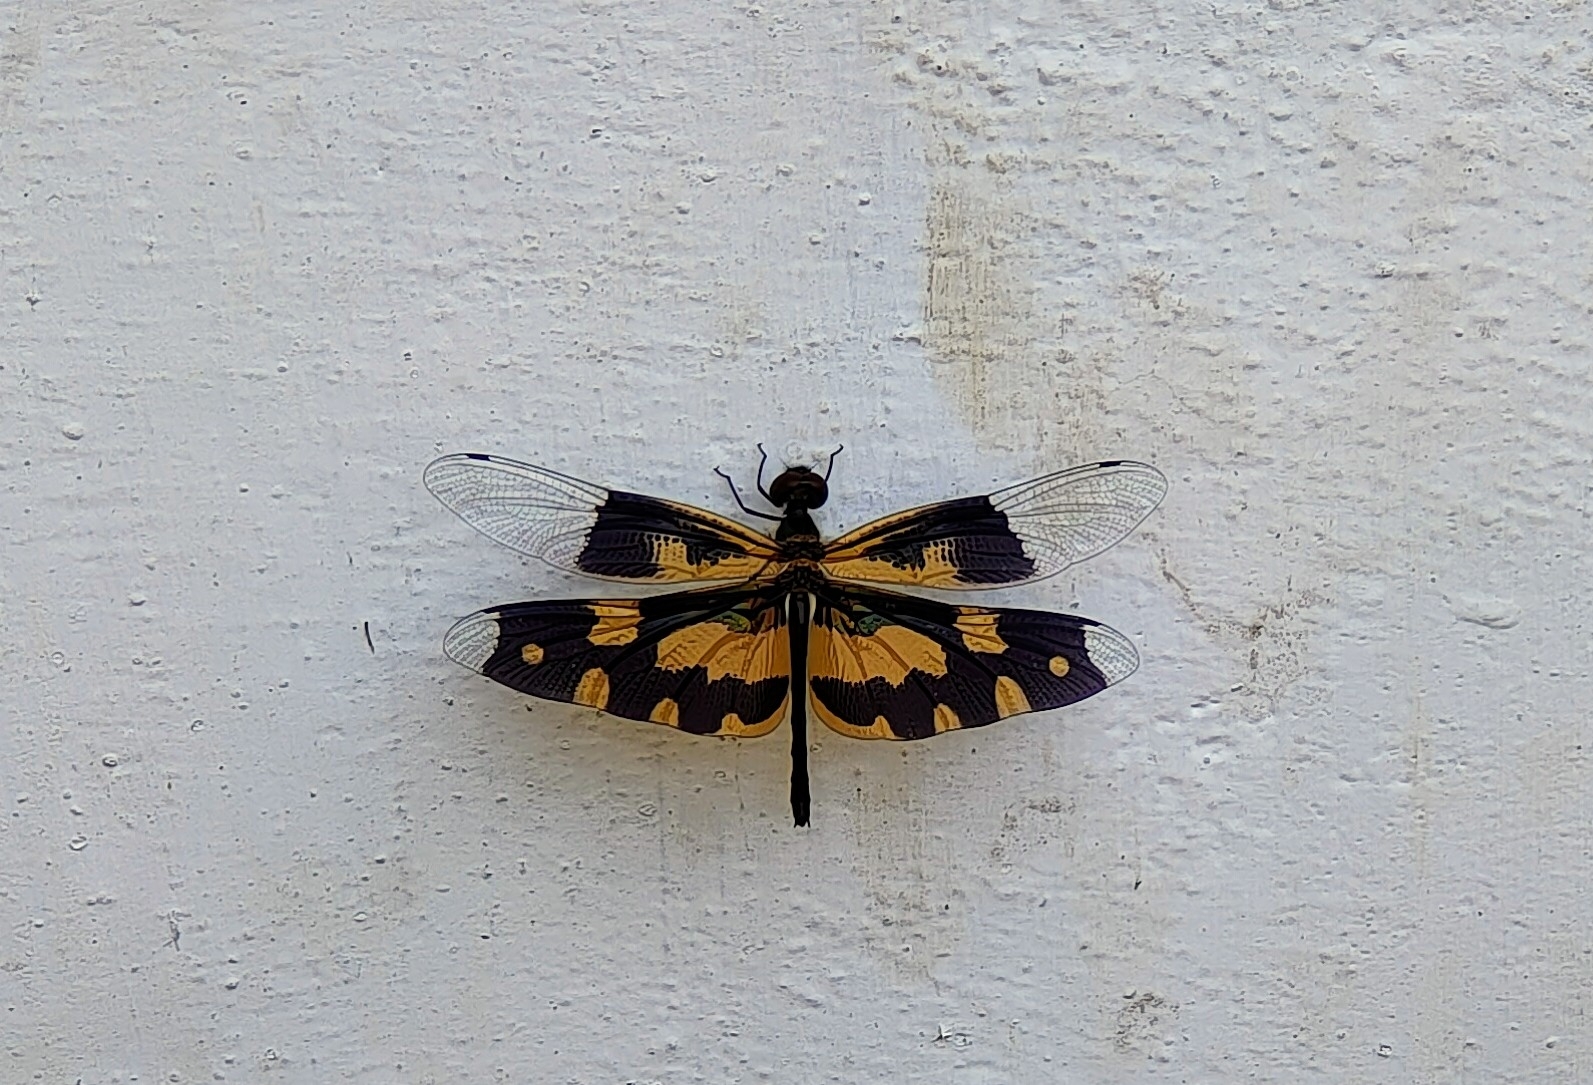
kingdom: Animalia
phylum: Arthropoda
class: Insecta
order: Odonata
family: Libellulidae
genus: Rhyothemis
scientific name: Rhyothemis variegata
